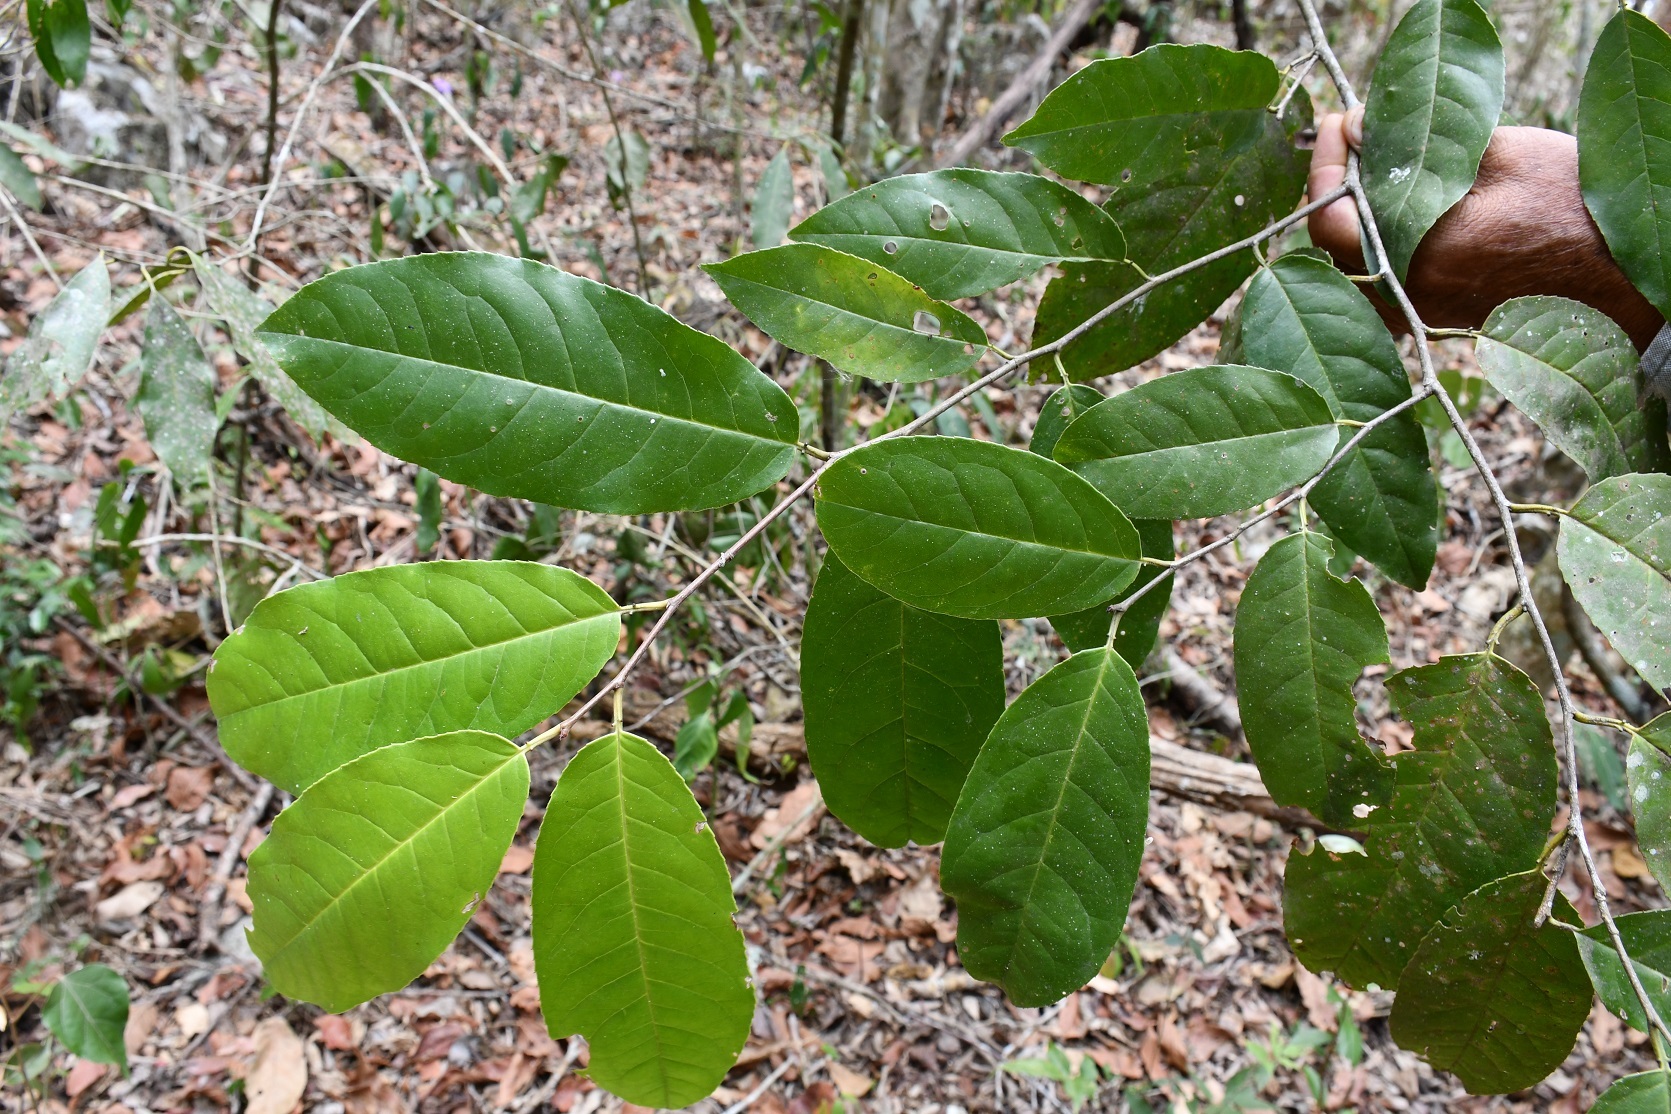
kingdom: Plantae
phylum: Tracheophyta
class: Magnoliopsida
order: Rosales
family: Rosaceae
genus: Prunus
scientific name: Prunus salasii
